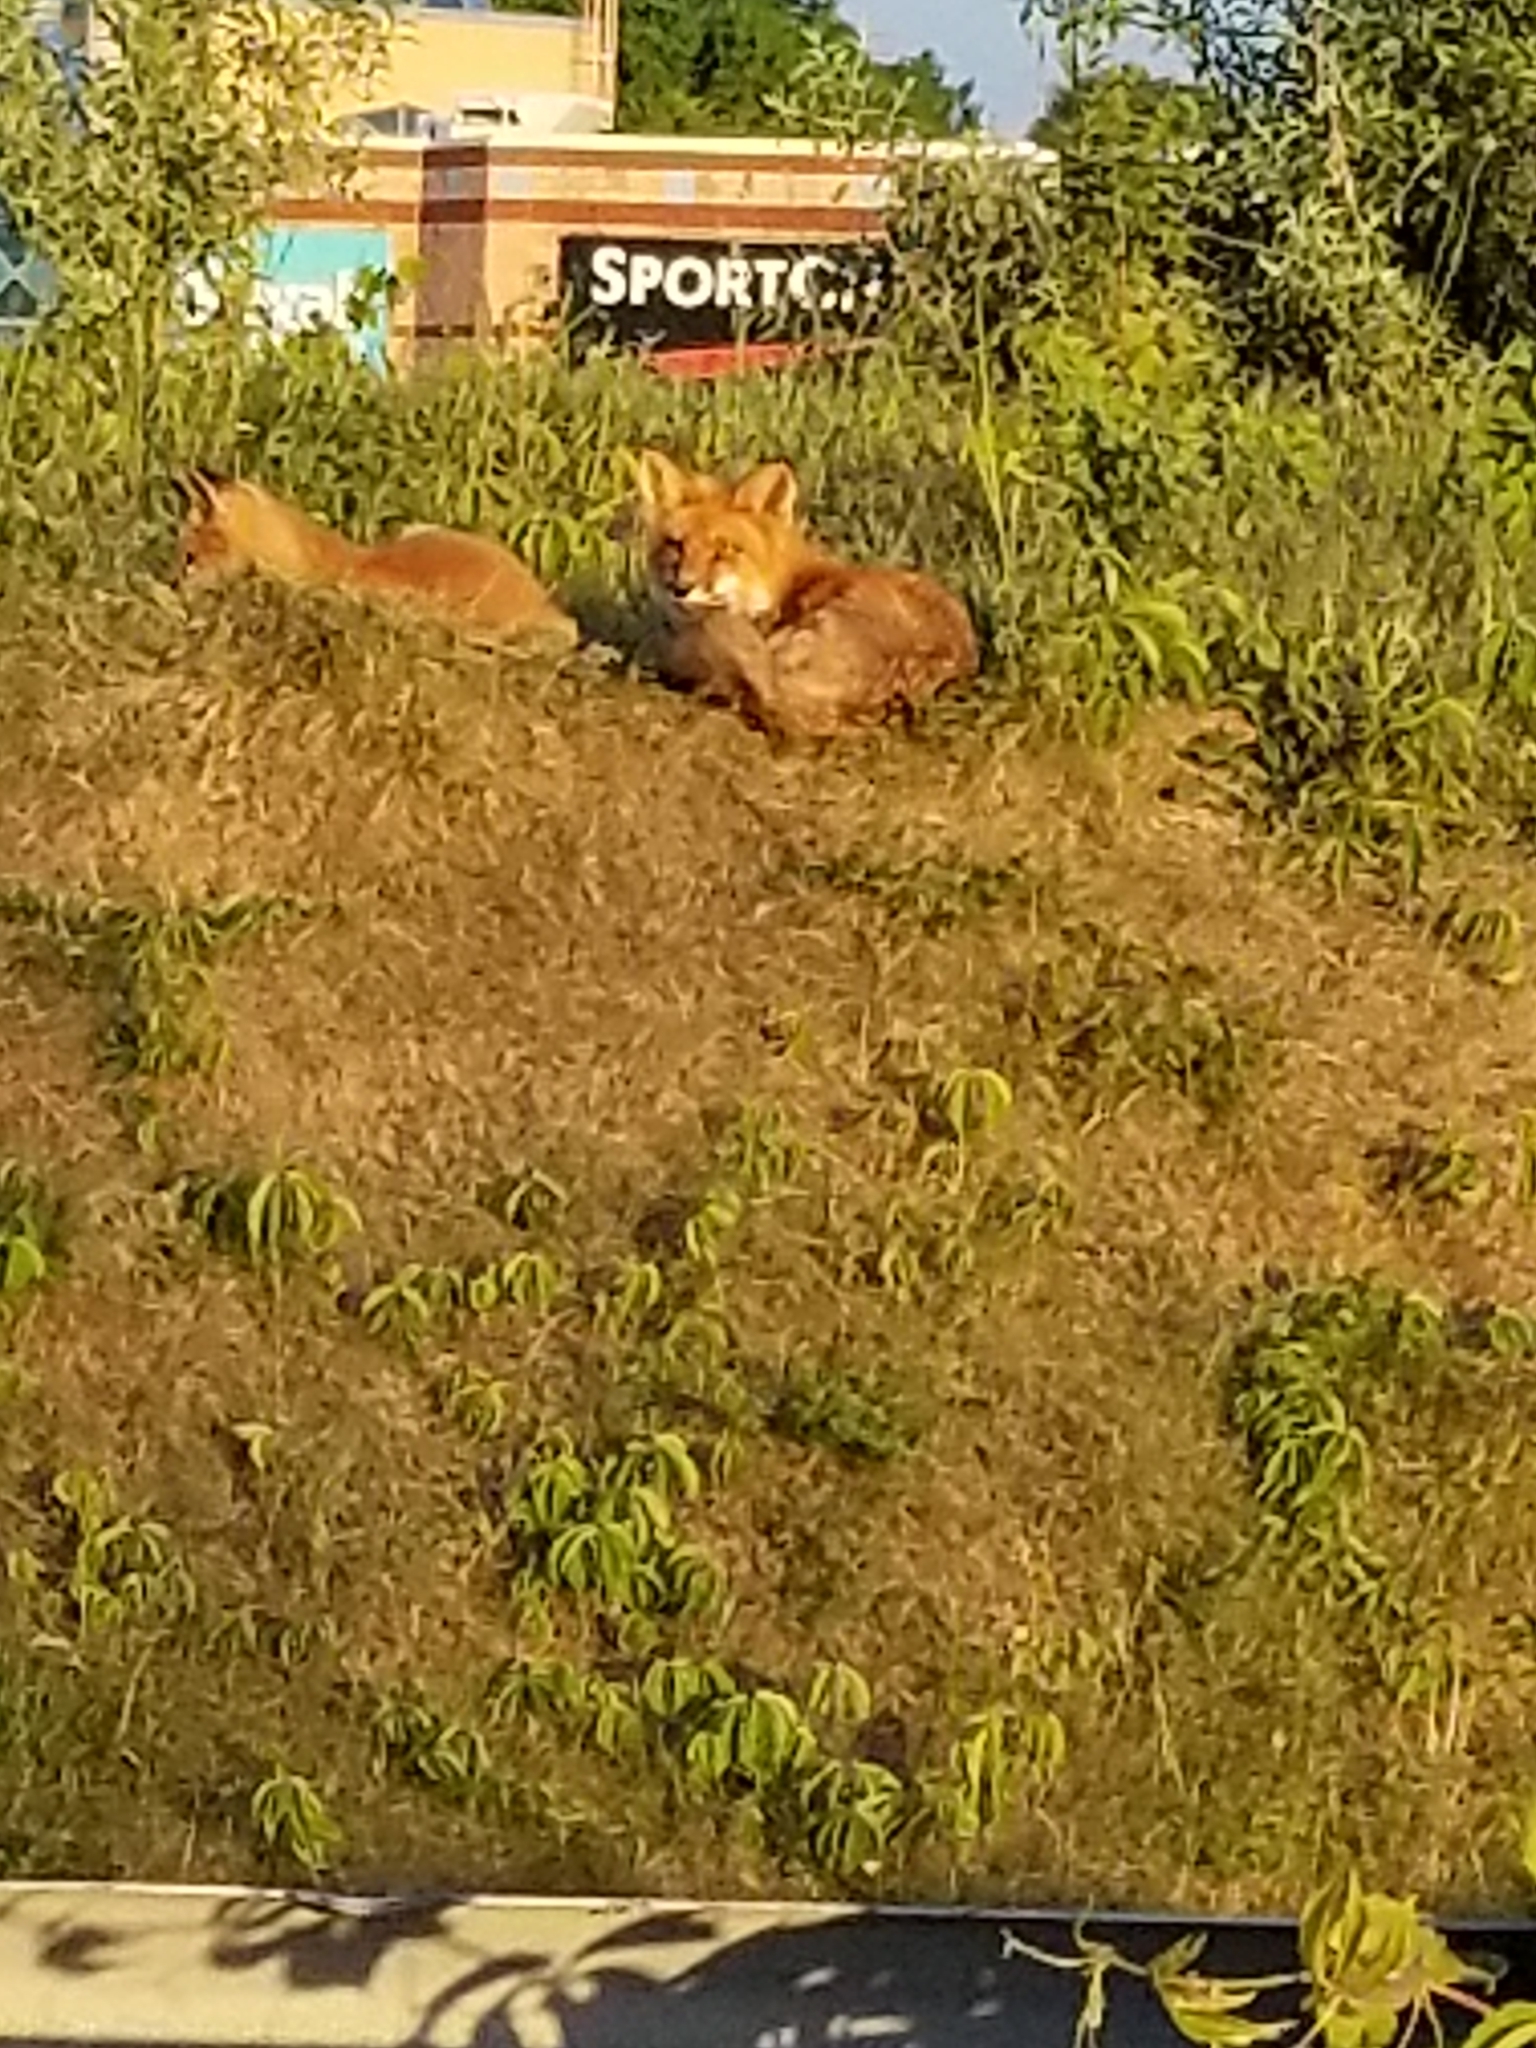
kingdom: Animalia
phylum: Chordata
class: Mammalia
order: Carnivora
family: Canidae
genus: Vulpes
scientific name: Vulpes vulpes
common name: Red fox
